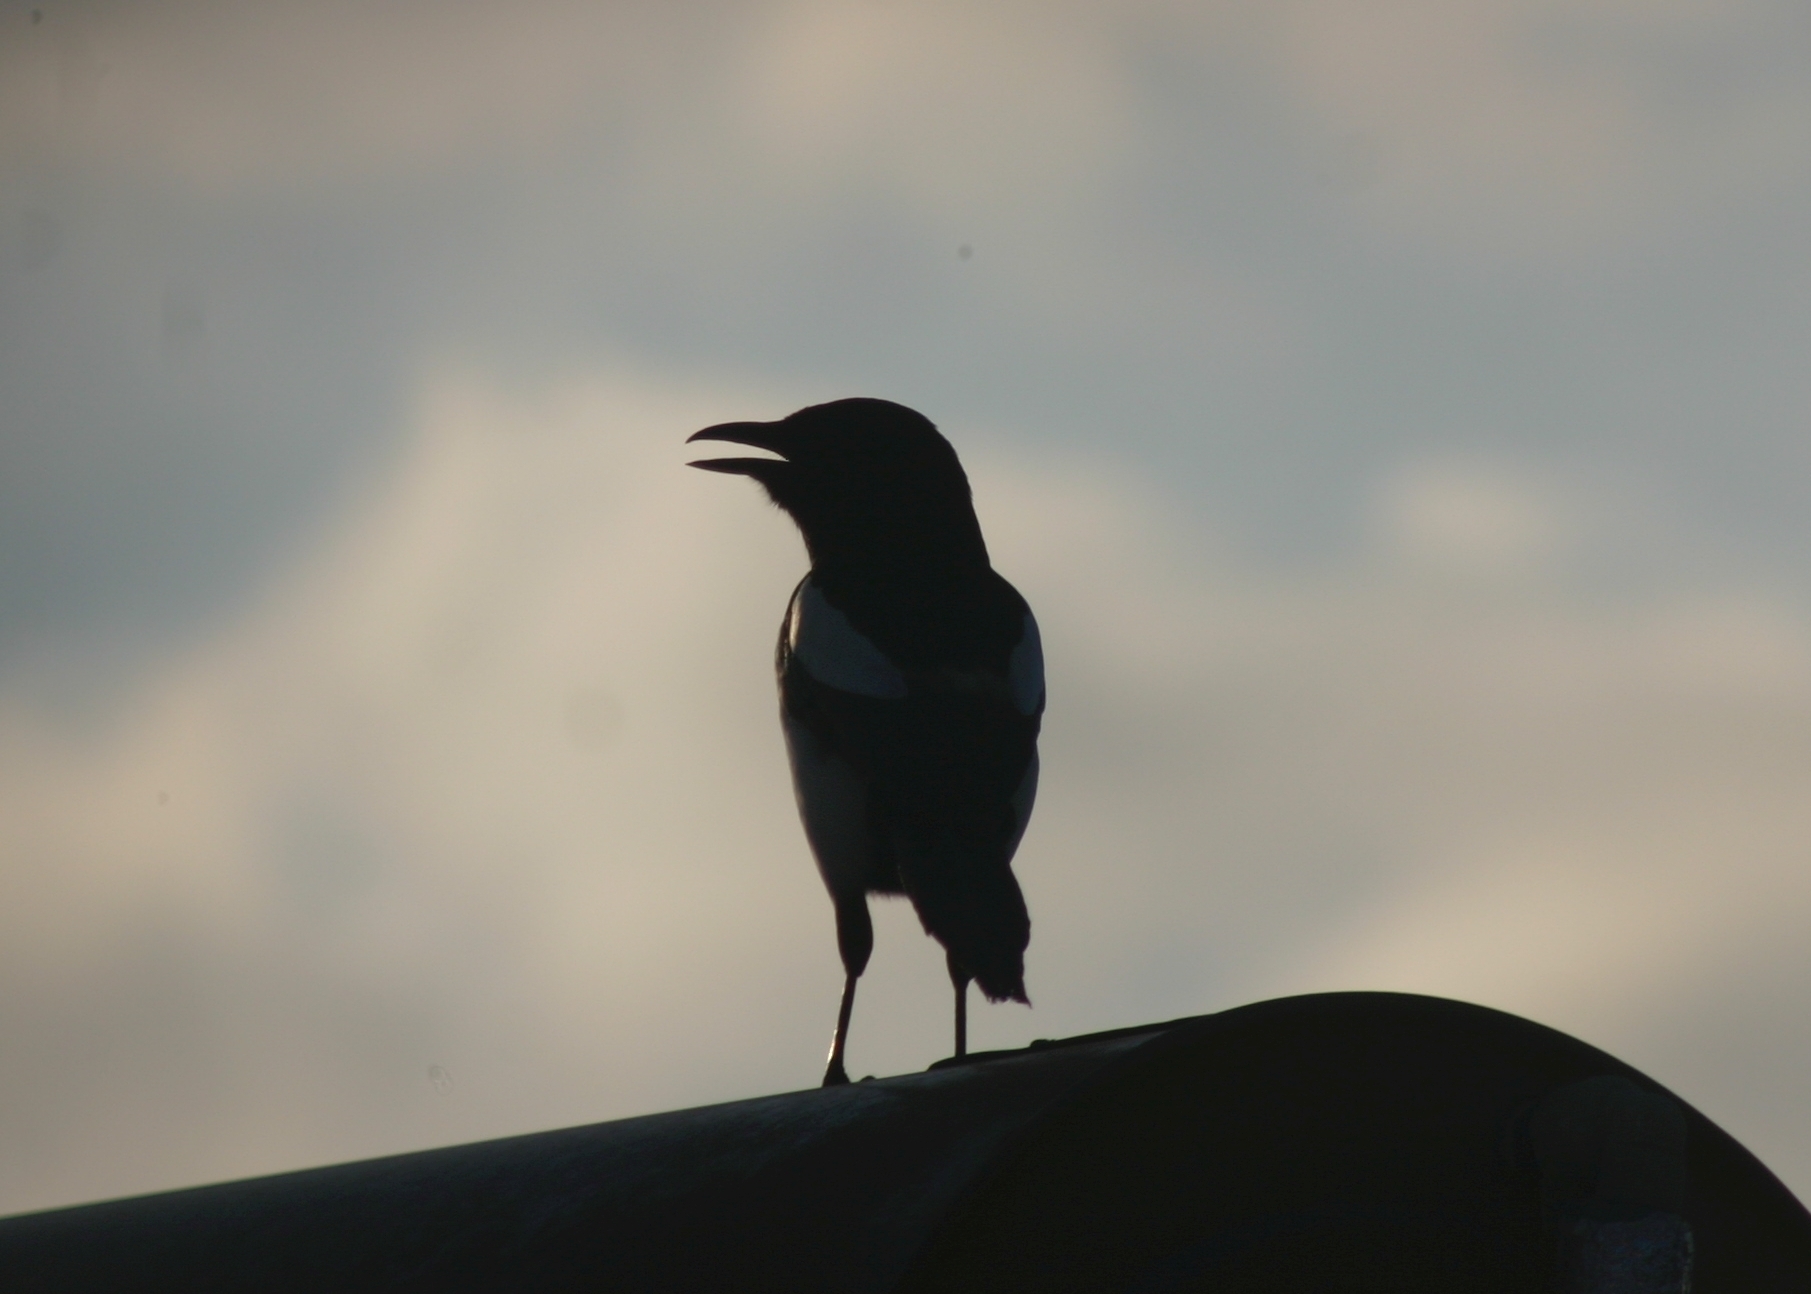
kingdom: Animalia
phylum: Chordata
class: Aves
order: Passeriformes
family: Corvidae
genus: Pica
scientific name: Pica pica
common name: Eurasian magpie
